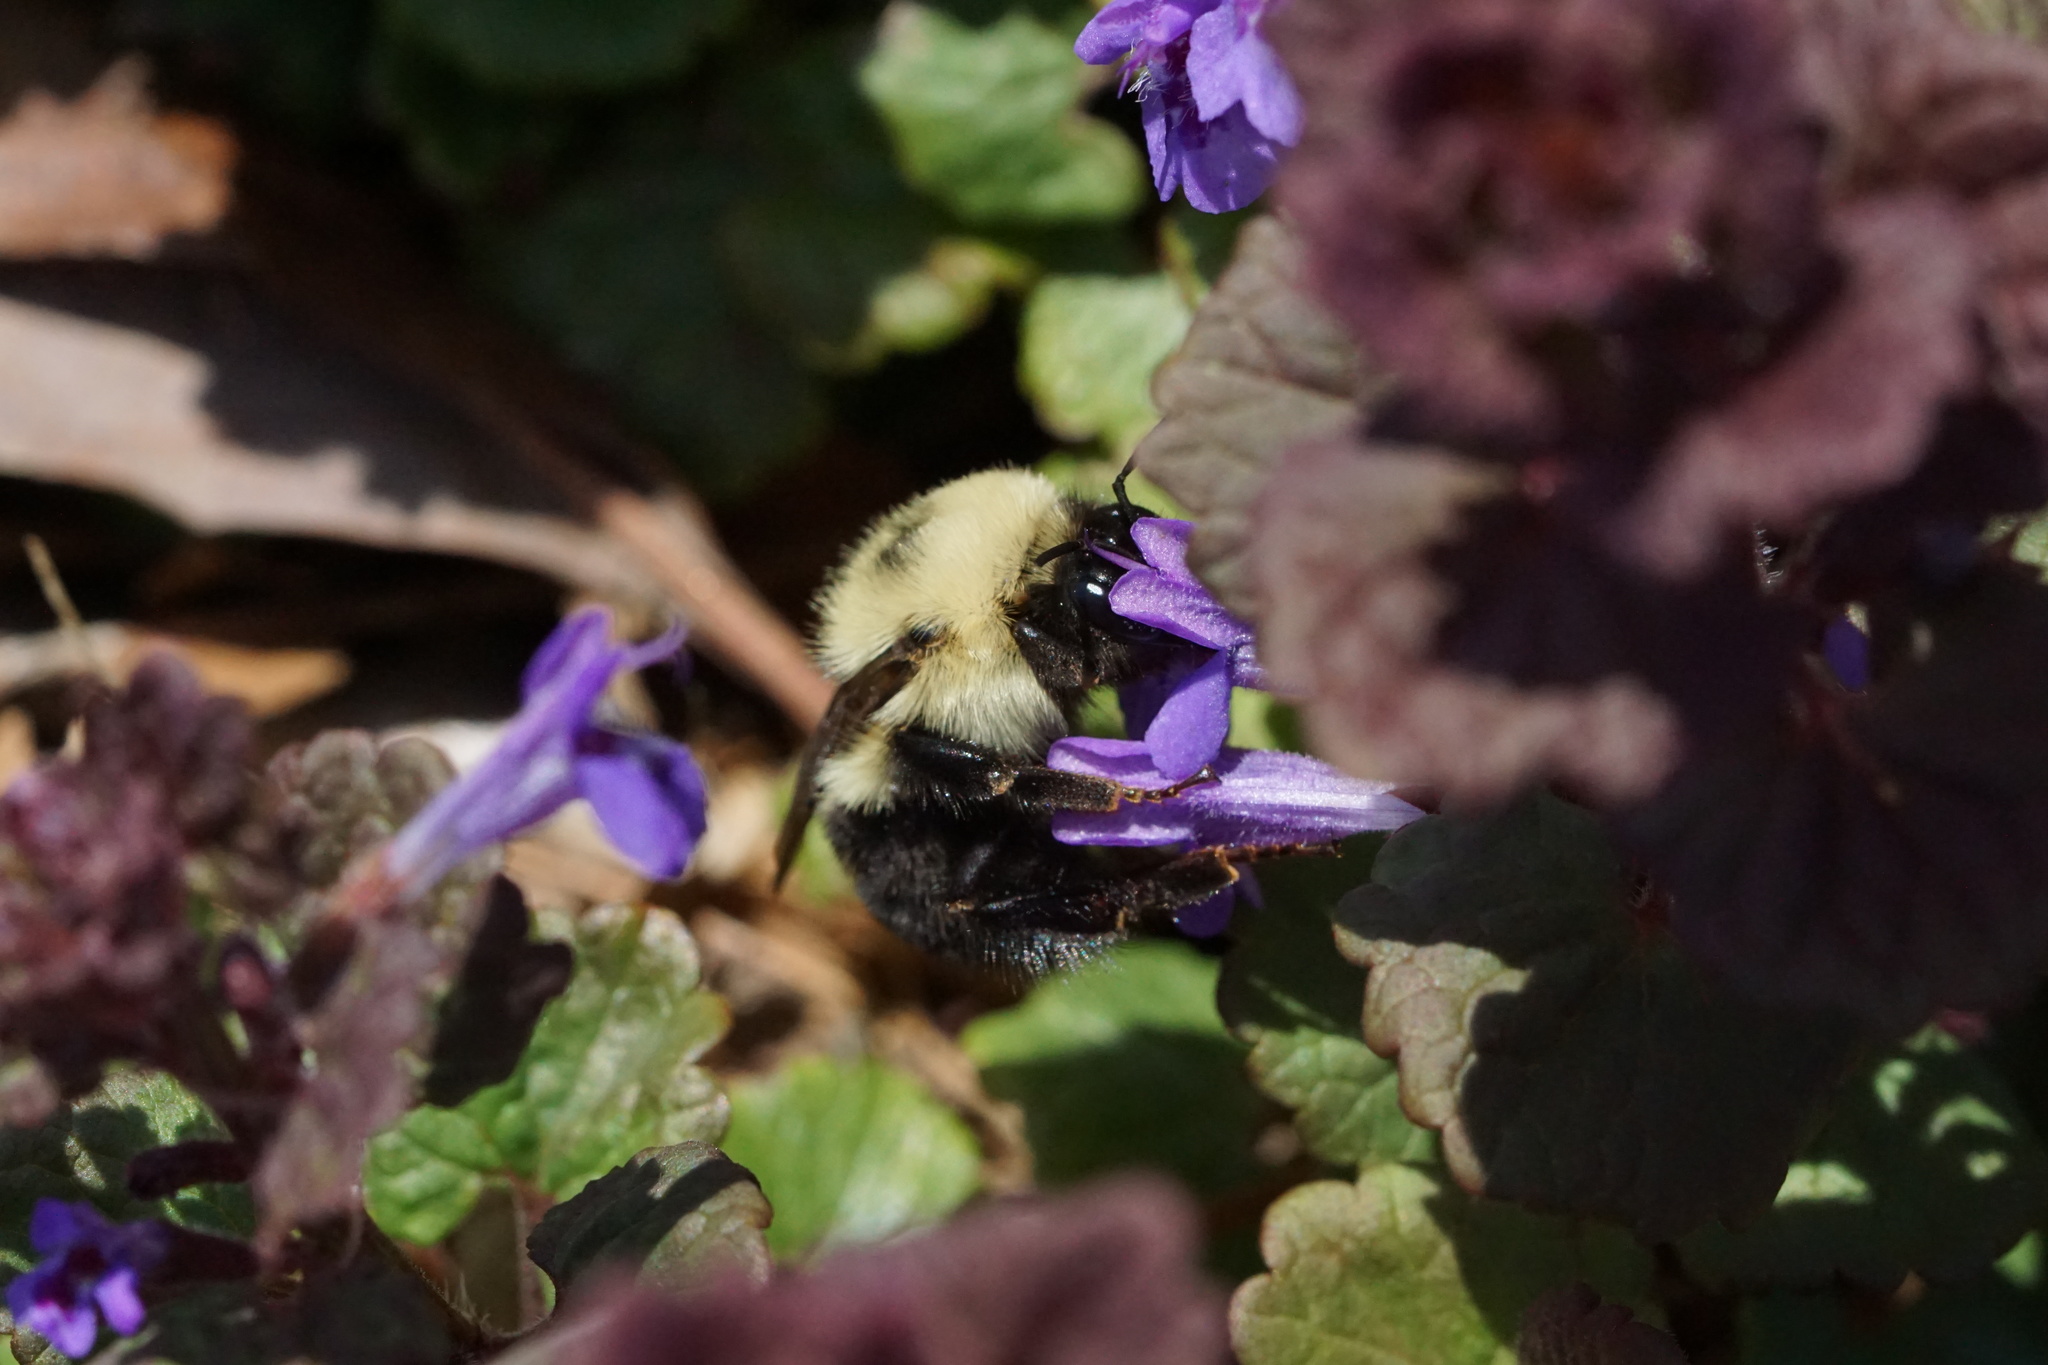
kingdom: Animalia
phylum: Arthropoda
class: Insecta
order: Hymenoptera
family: Apidae
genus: Bombus
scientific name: Bombus bimaculatus
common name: Two-spotted bumble bee
